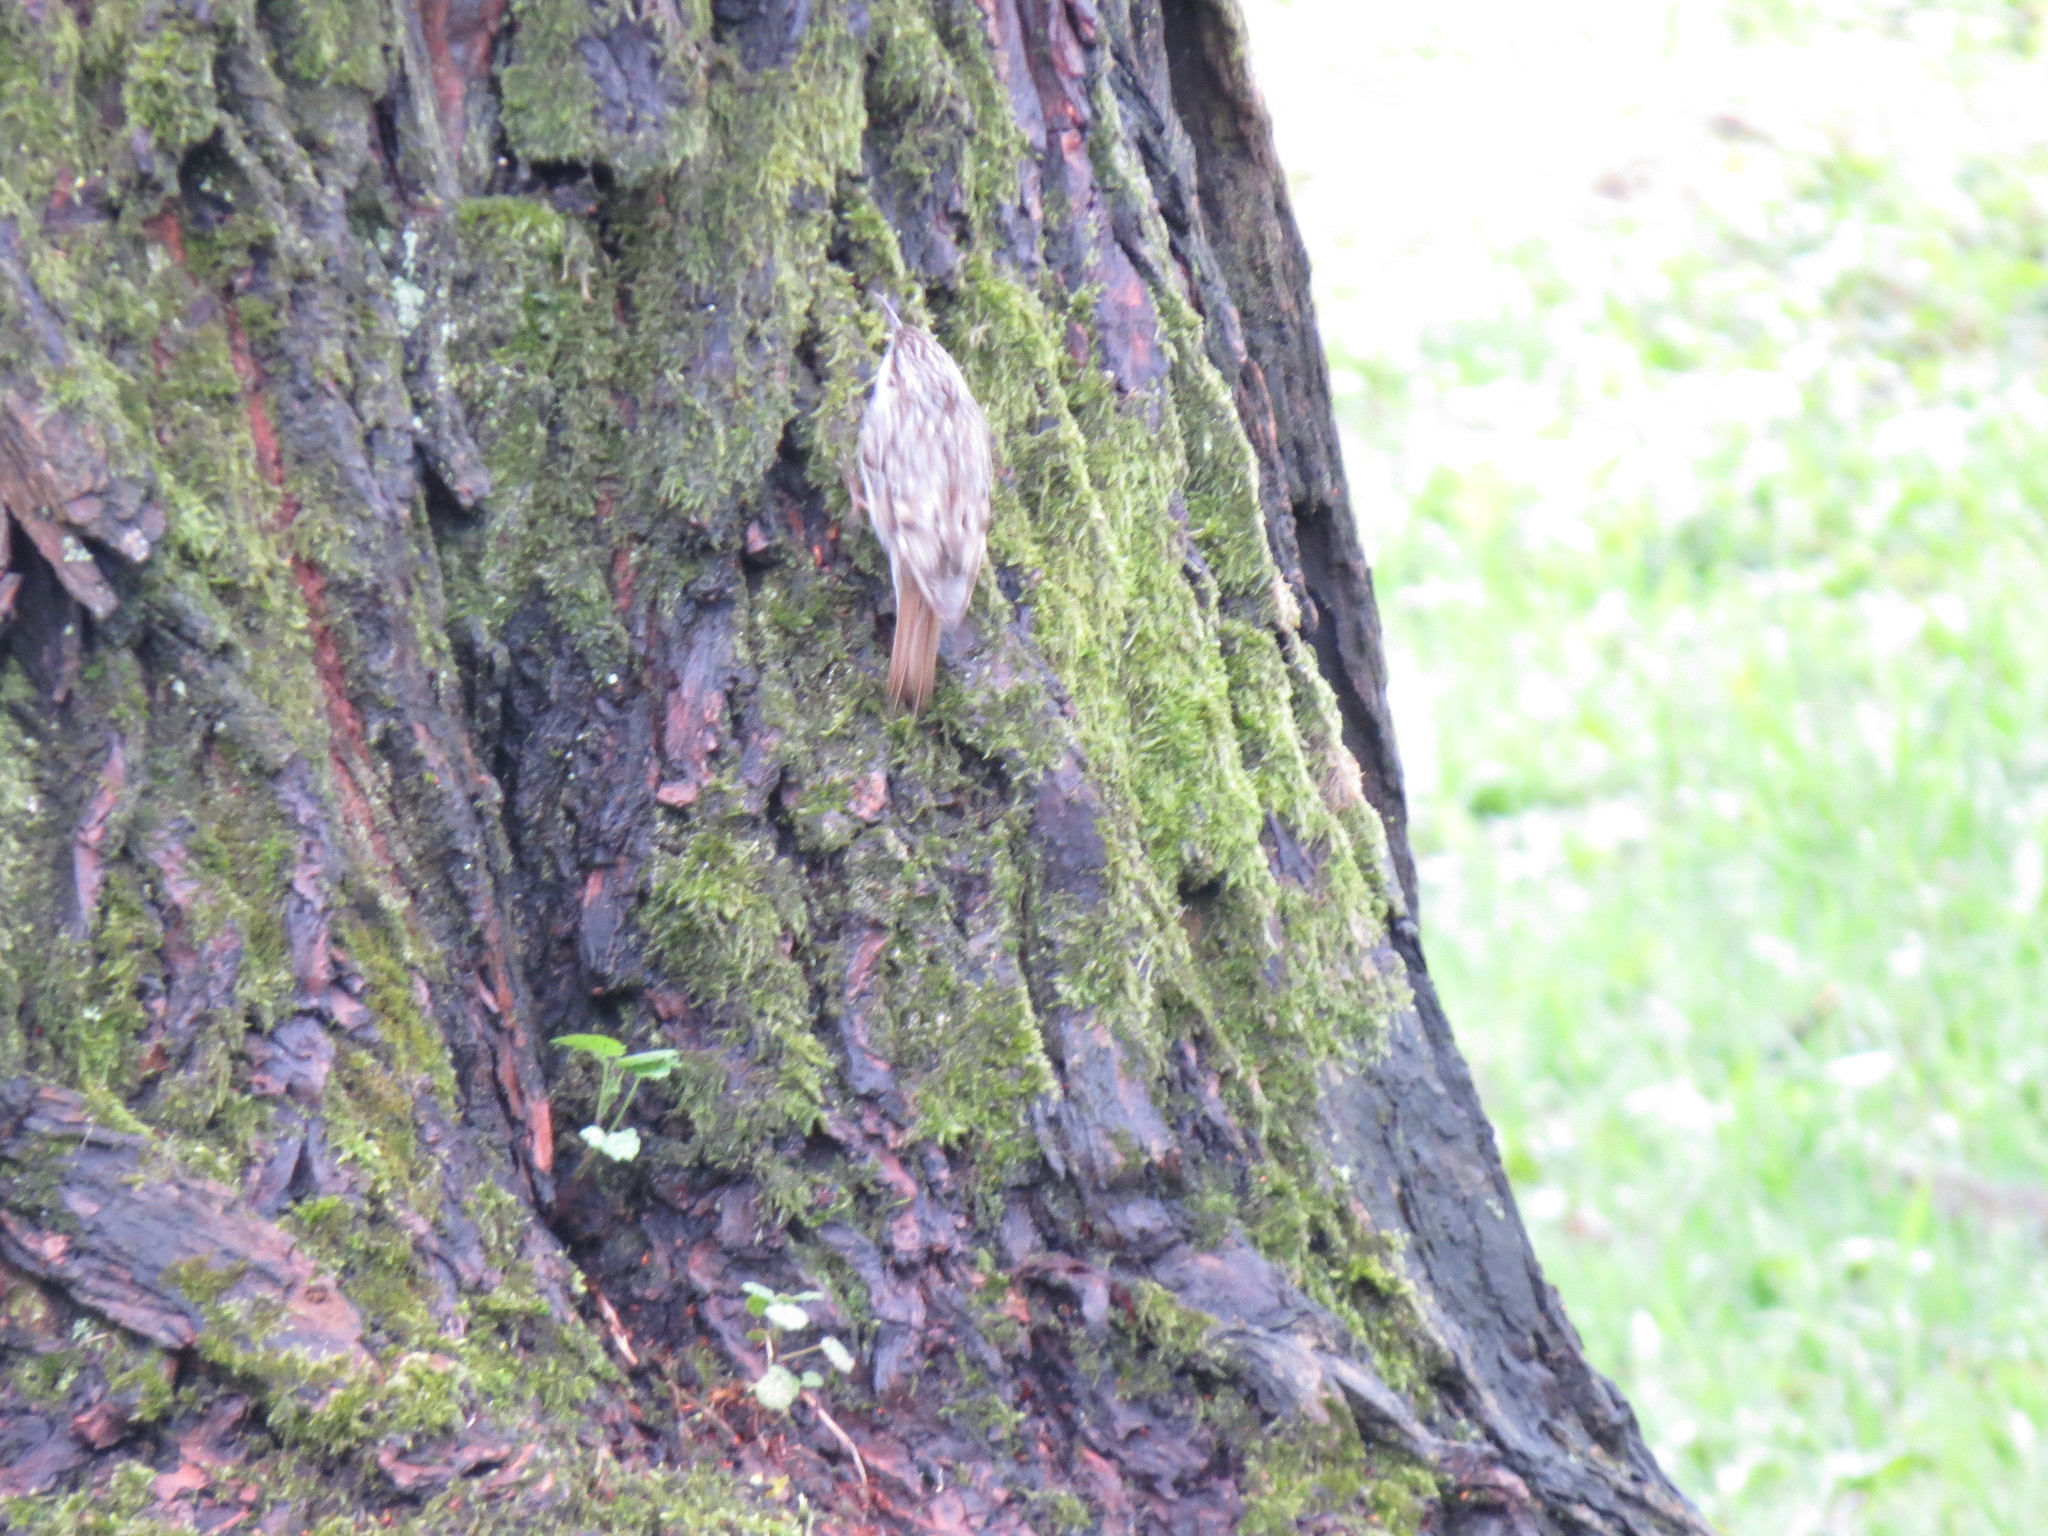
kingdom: Animalia
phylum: Chordata
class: Aves
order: Passeriformes
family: Certhiidae
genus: Certhia
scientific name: Certhia familiaris
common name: Eurasian treecreeper
